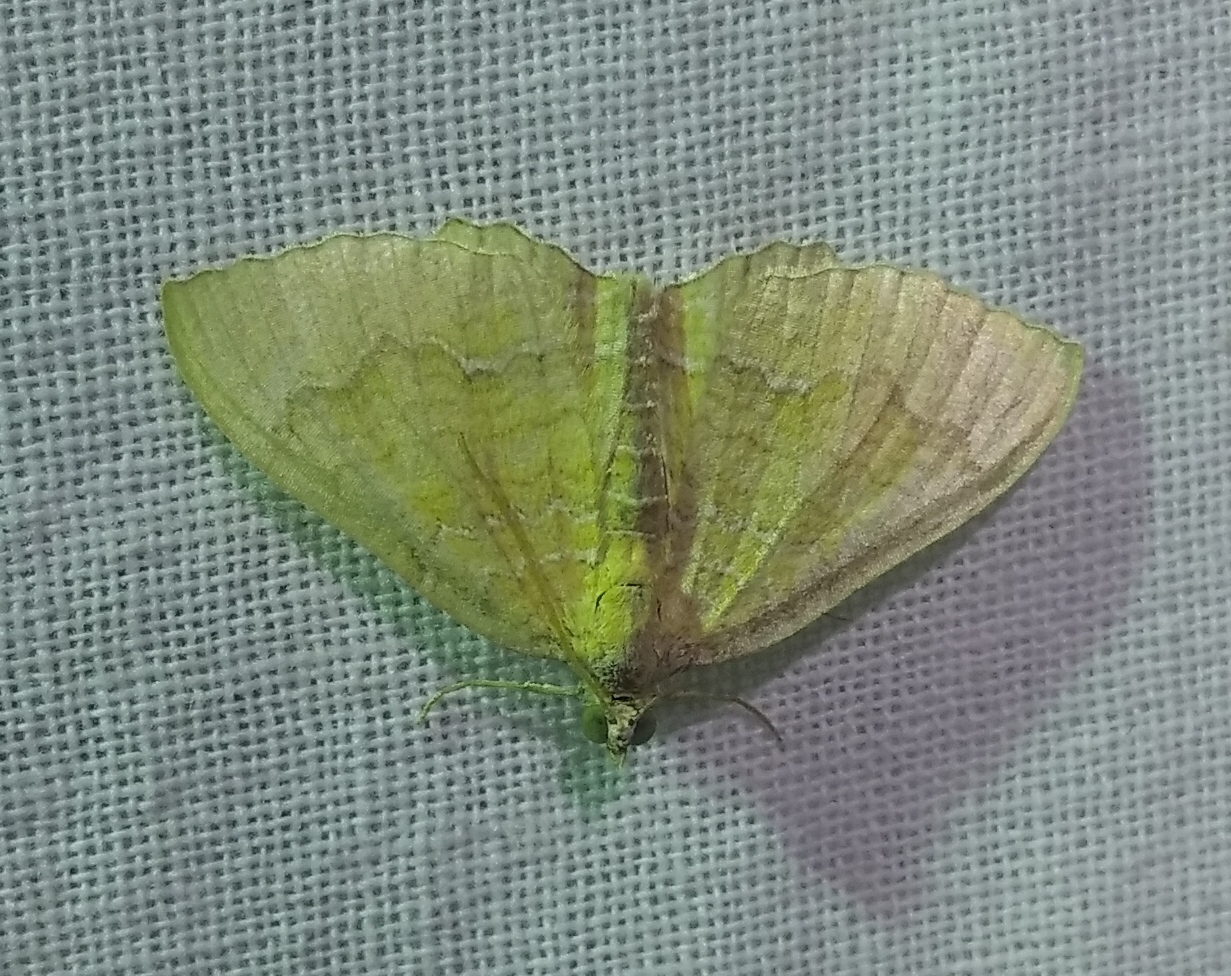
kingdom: Animalia
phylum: Arthropoda
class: Insecta
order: Lepidoptera
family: Geometridae
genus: Camptogramma
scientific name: Camptogramma bilineata
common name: Yellow shell
